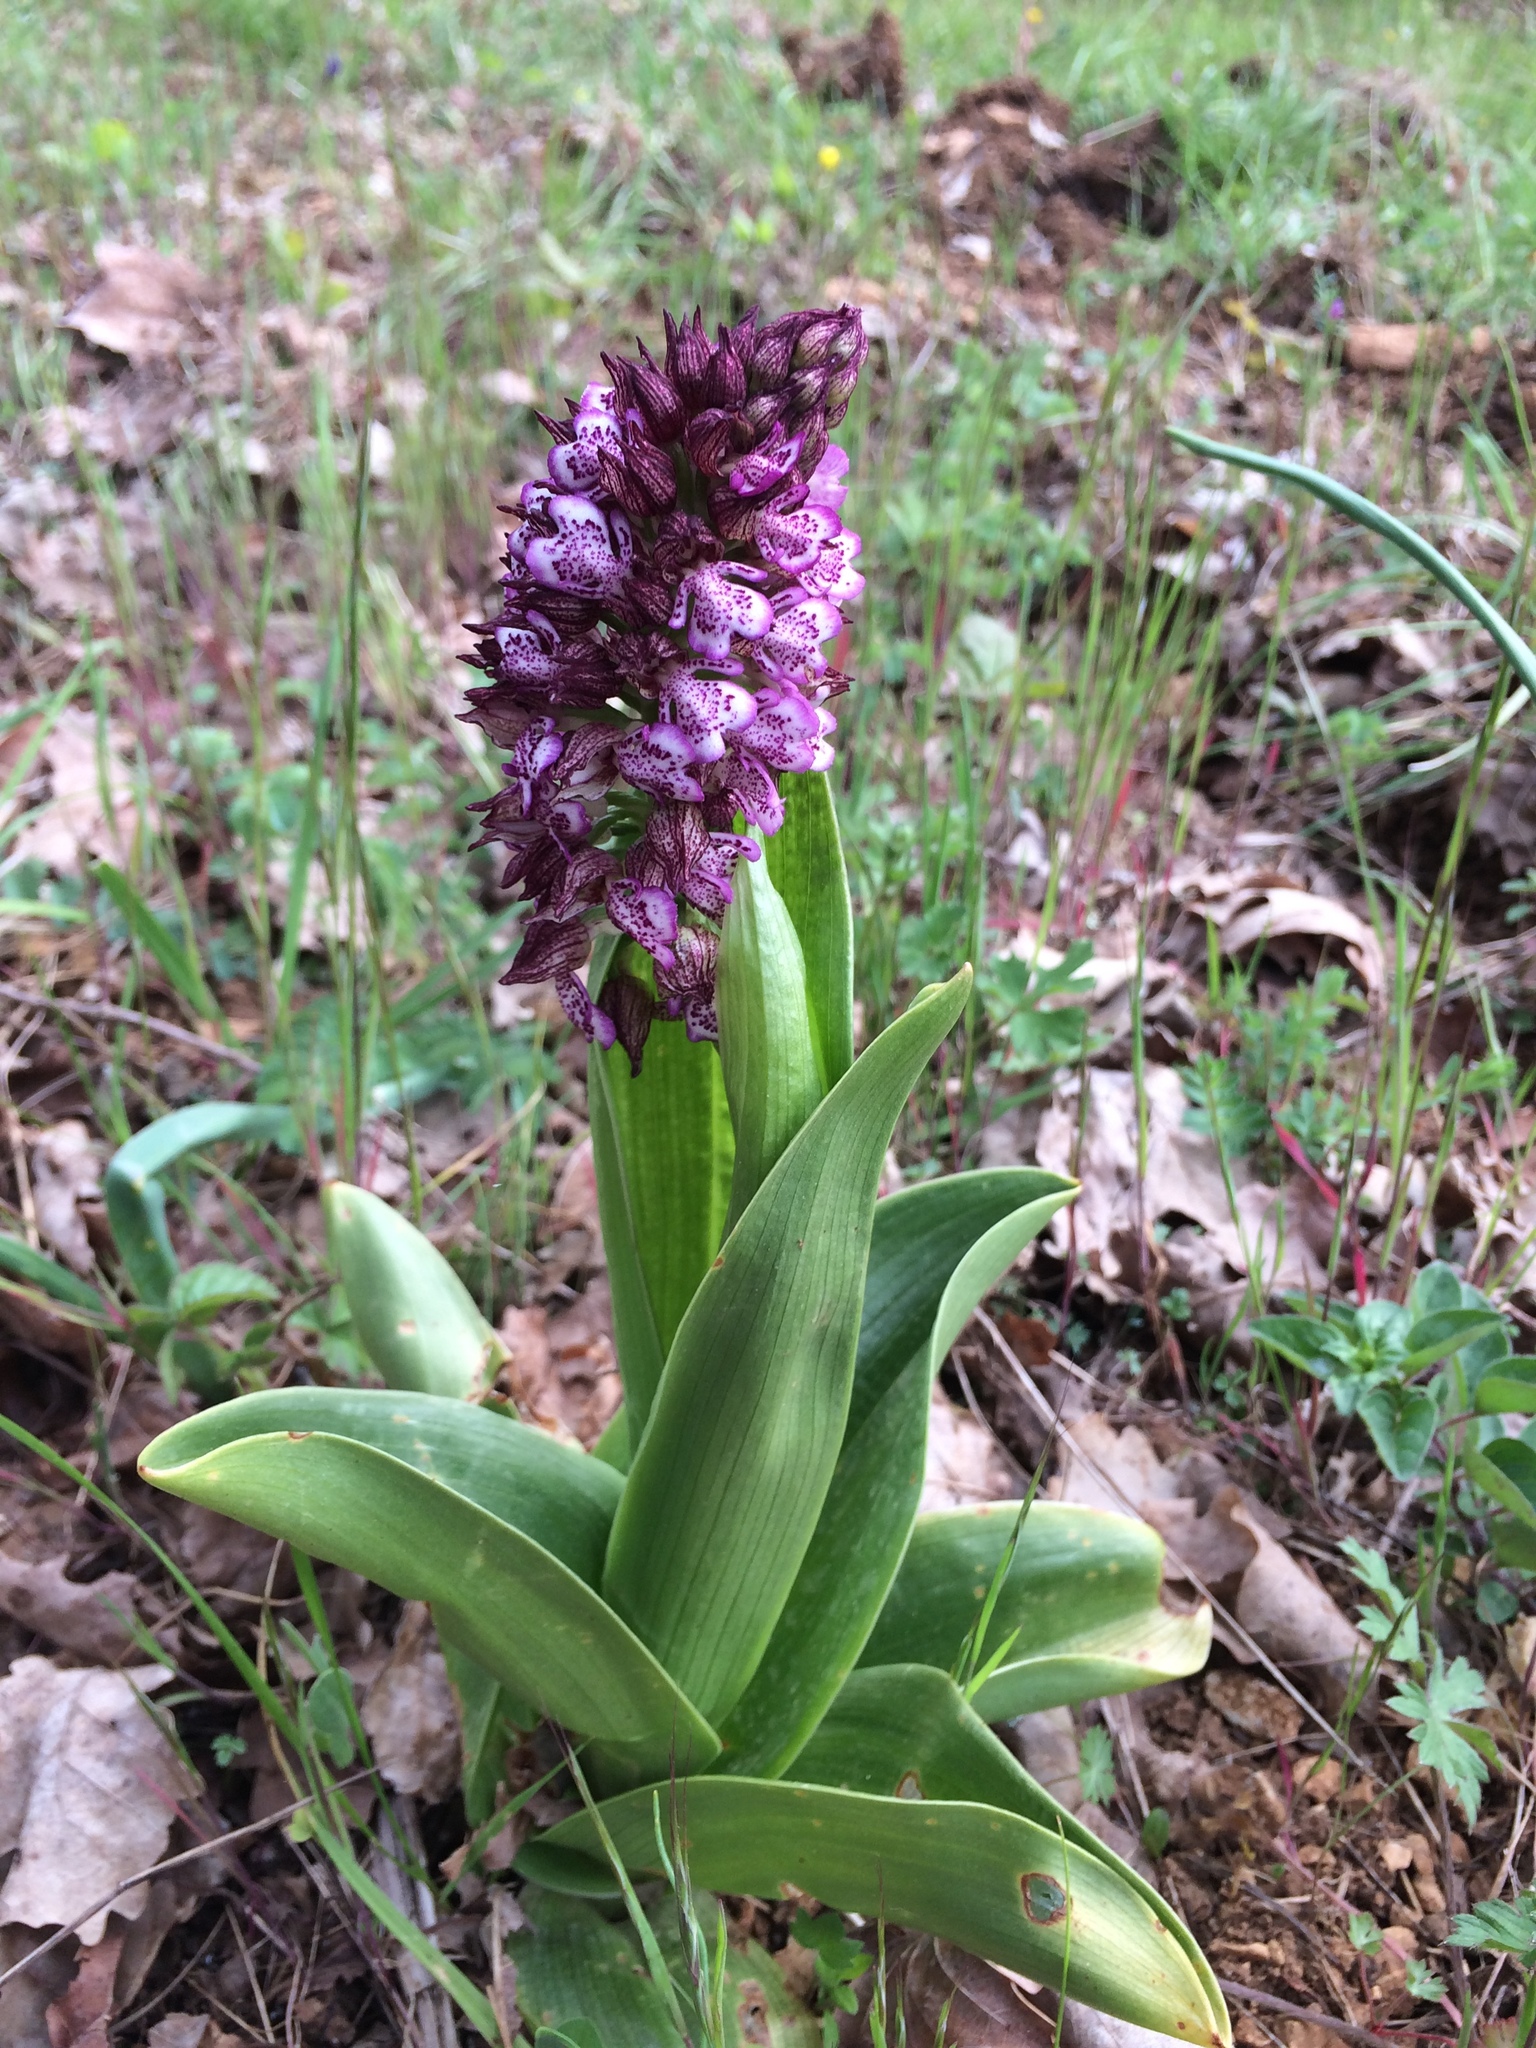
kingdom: Plantae
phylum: Tracheophyta
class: Liliopsida
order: Asparagales
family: Orchidaceae
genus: Orchis
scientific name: Orchis purpurea
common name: Lady orchid
